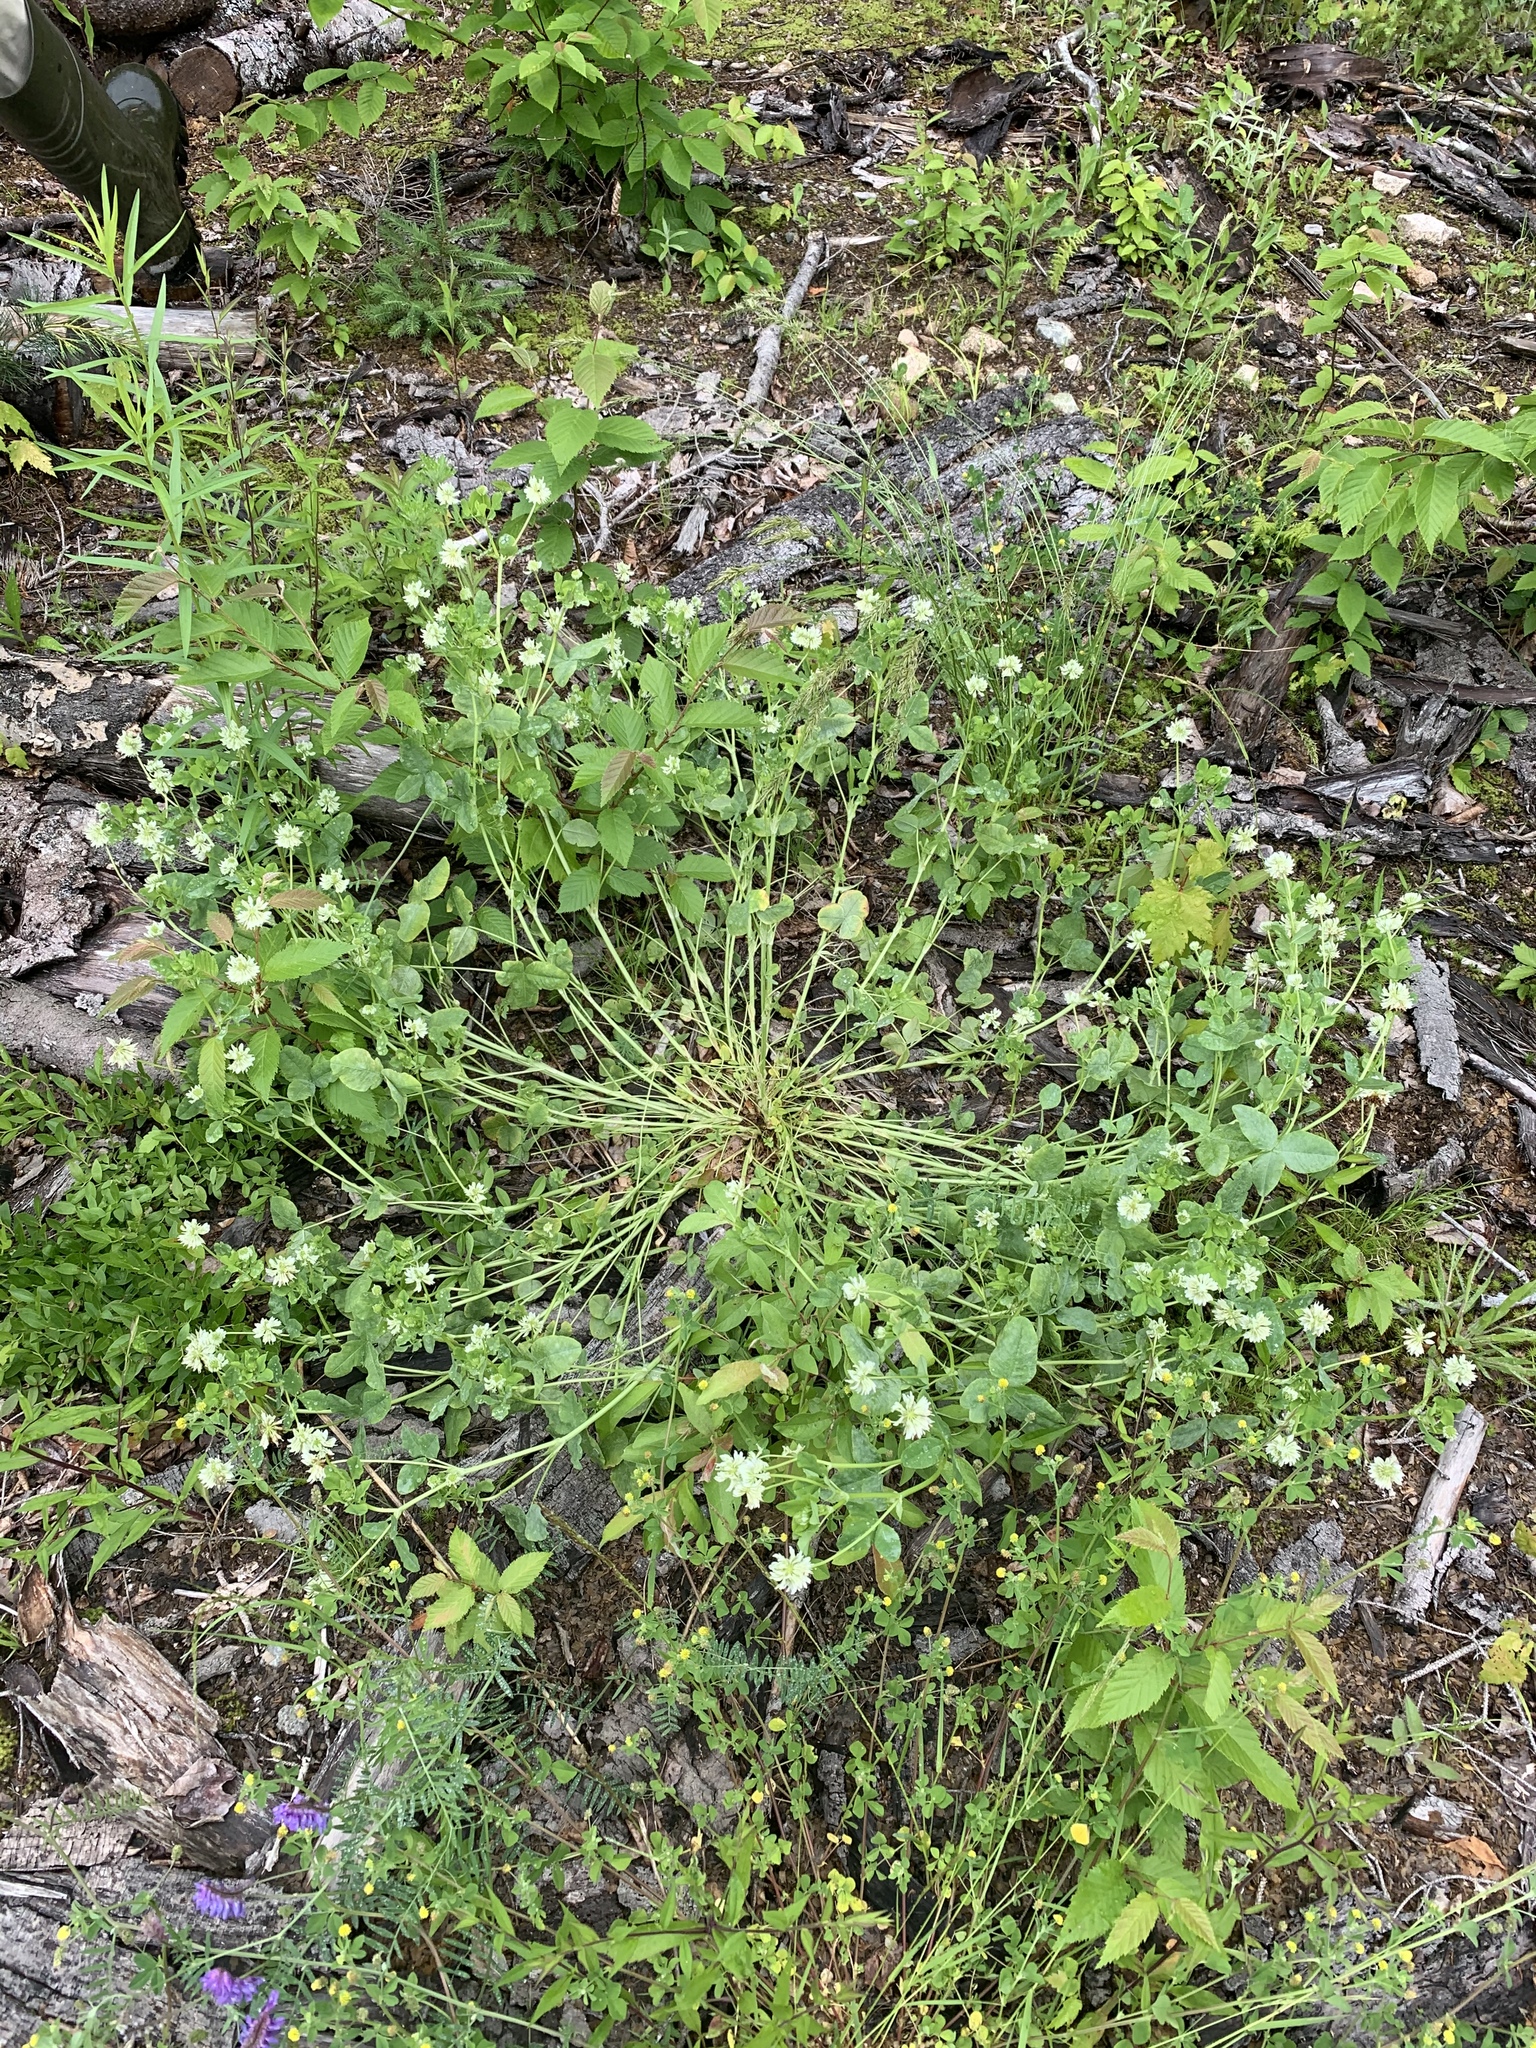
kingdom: Plantae
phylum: Tracheophyta
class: Magnoliopsida
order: Fabales
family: Fabaceae
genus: Trifolium
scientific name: Trifolium hybridum
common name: Alsike clover
